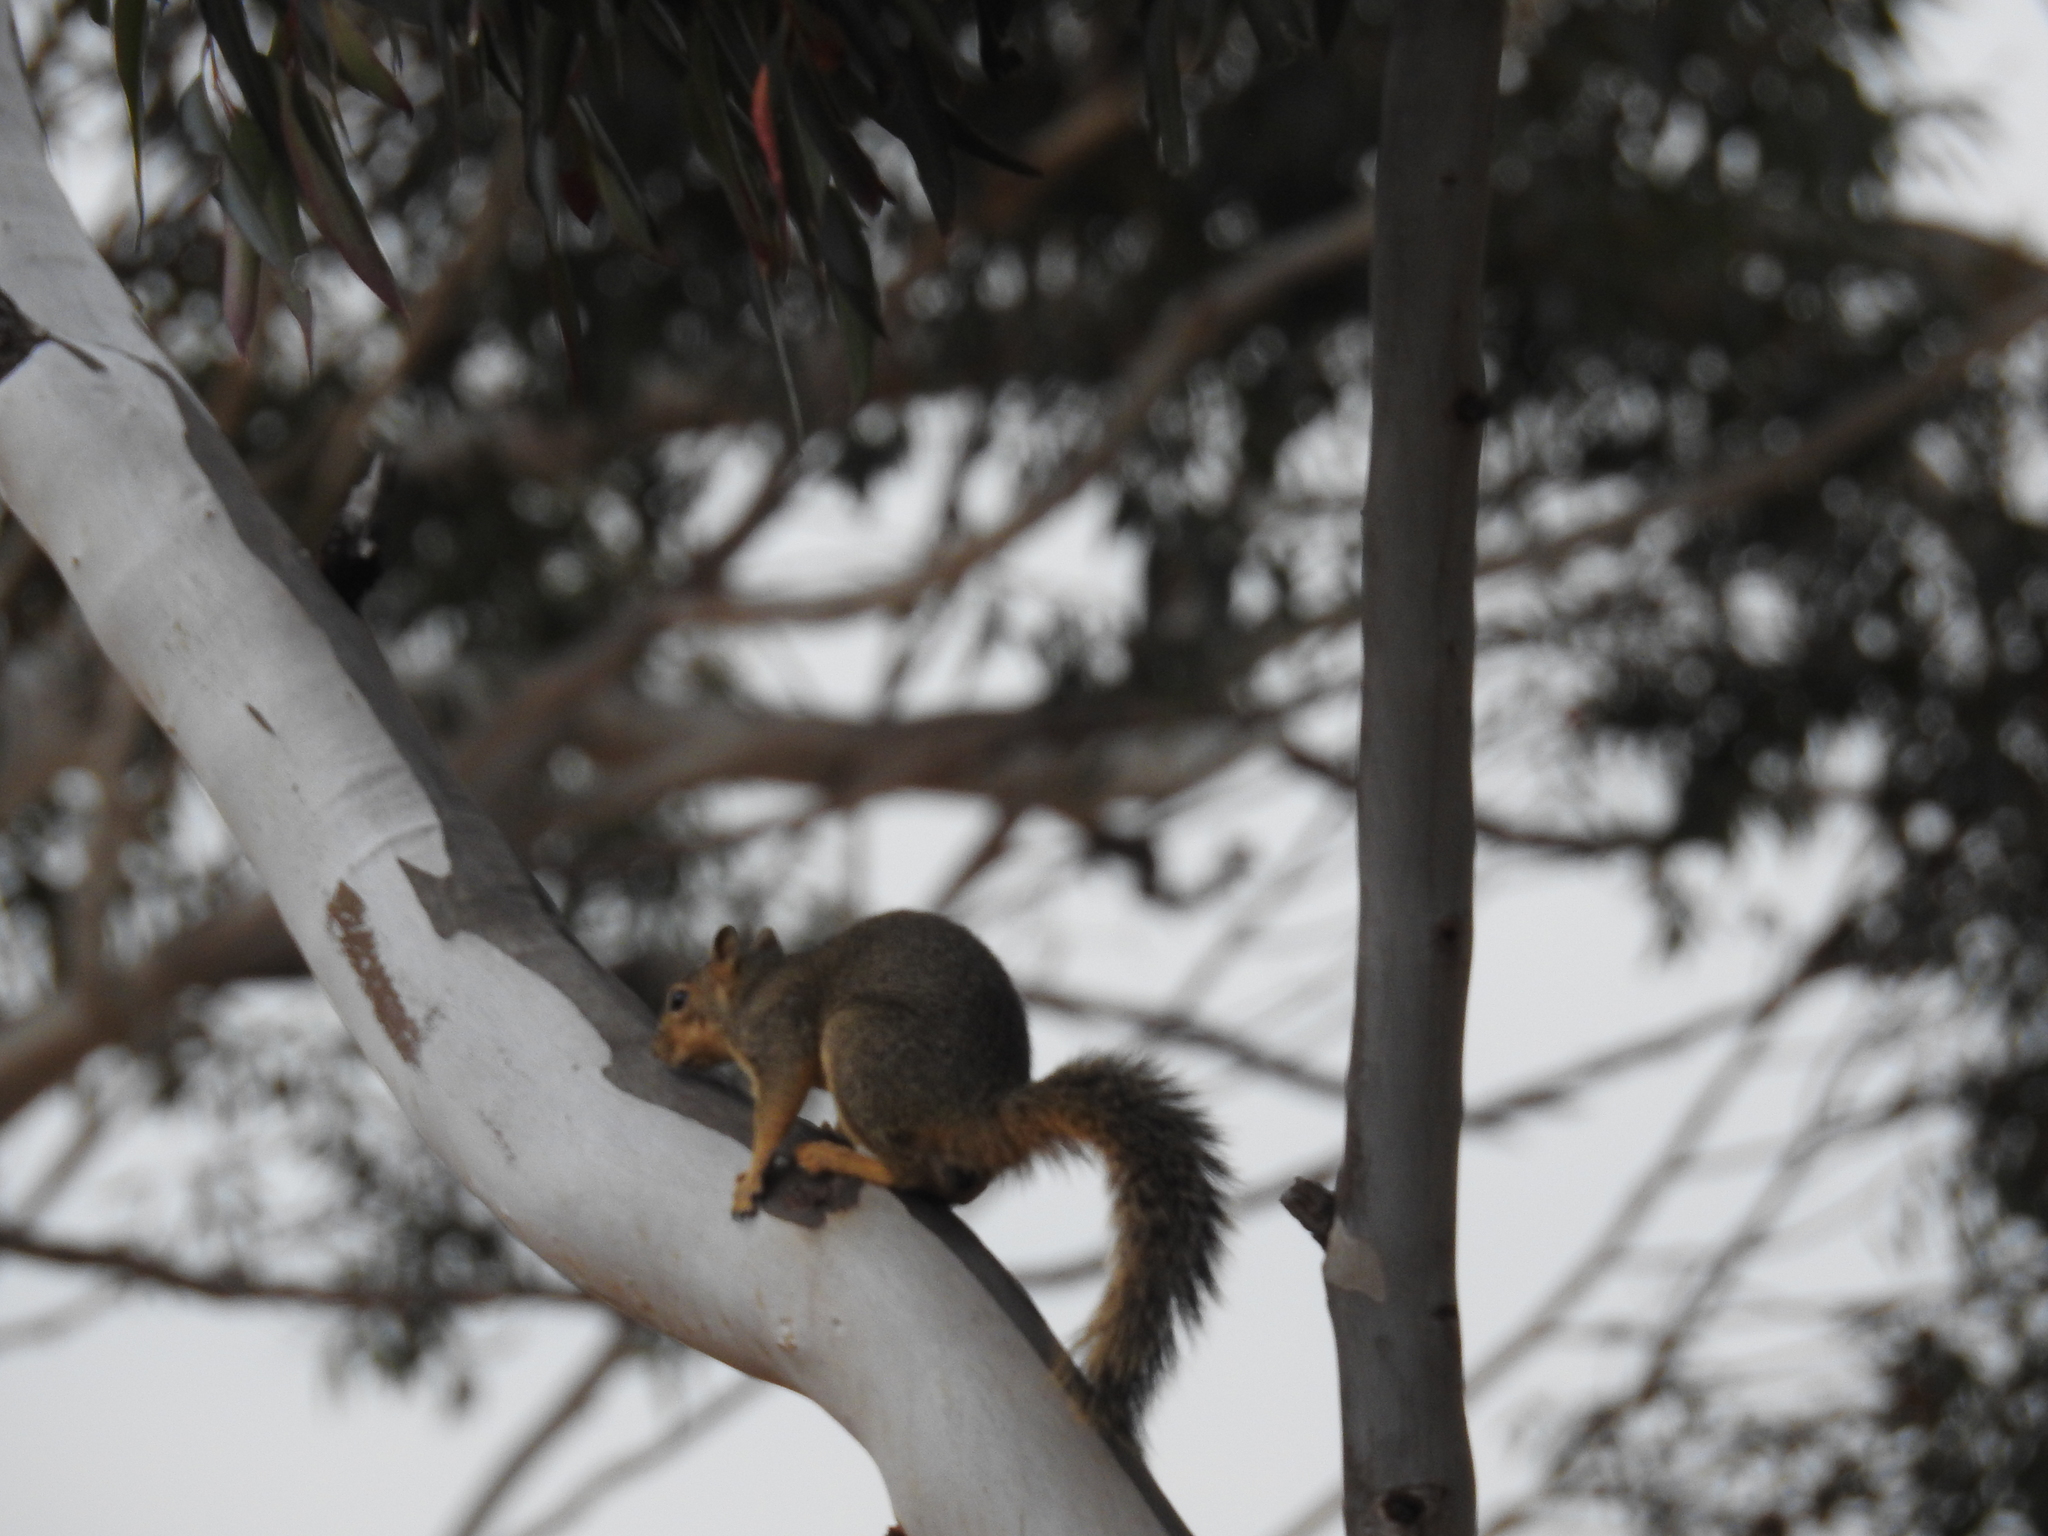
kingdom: Animalia
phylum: Chordata
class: Mammalia
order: Rodentia
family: Sciuridae
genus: Sciurus
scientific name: Sciurus niger
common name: Fox squirrel
